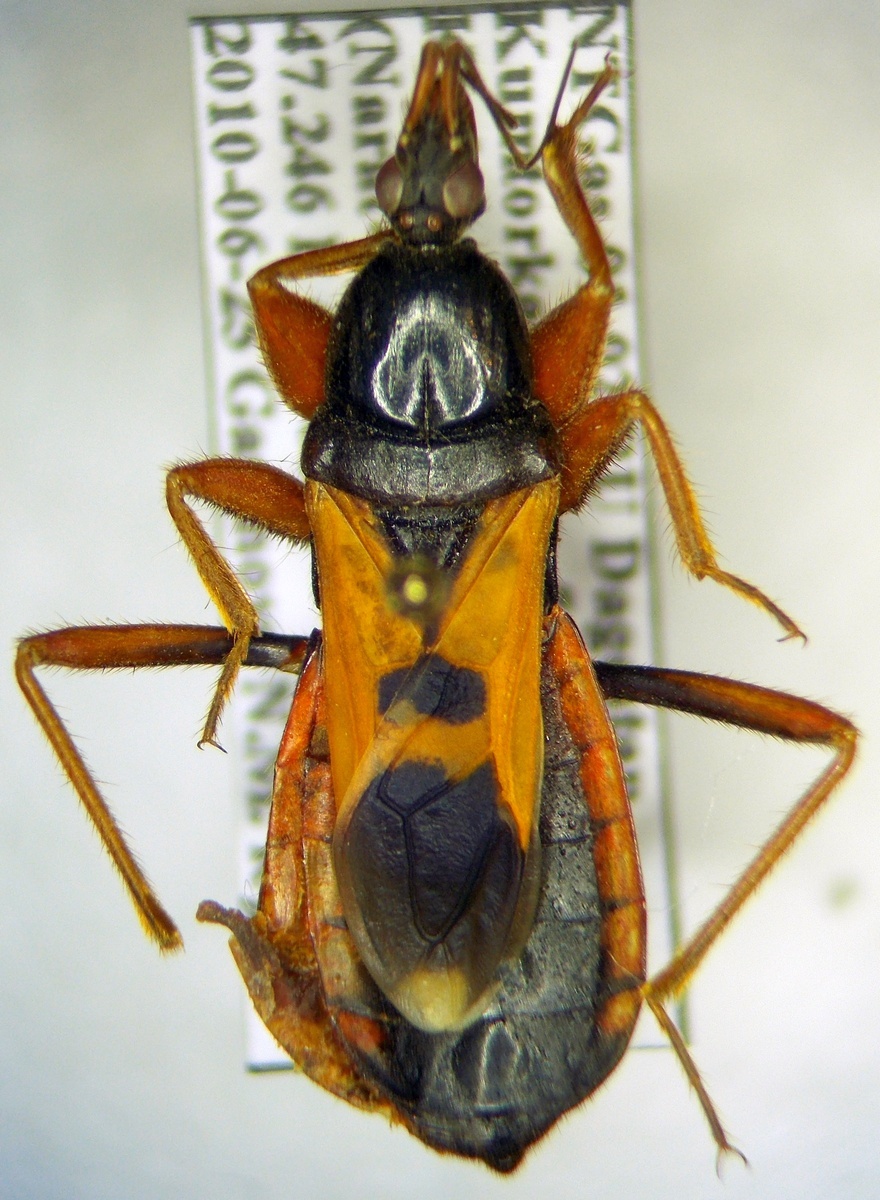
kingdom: Animalia
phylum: Arthropoda
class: Insecta
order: Hemiptera
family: Reduviidae
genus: Ectomocoris
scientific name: Ectomocoris ululans
